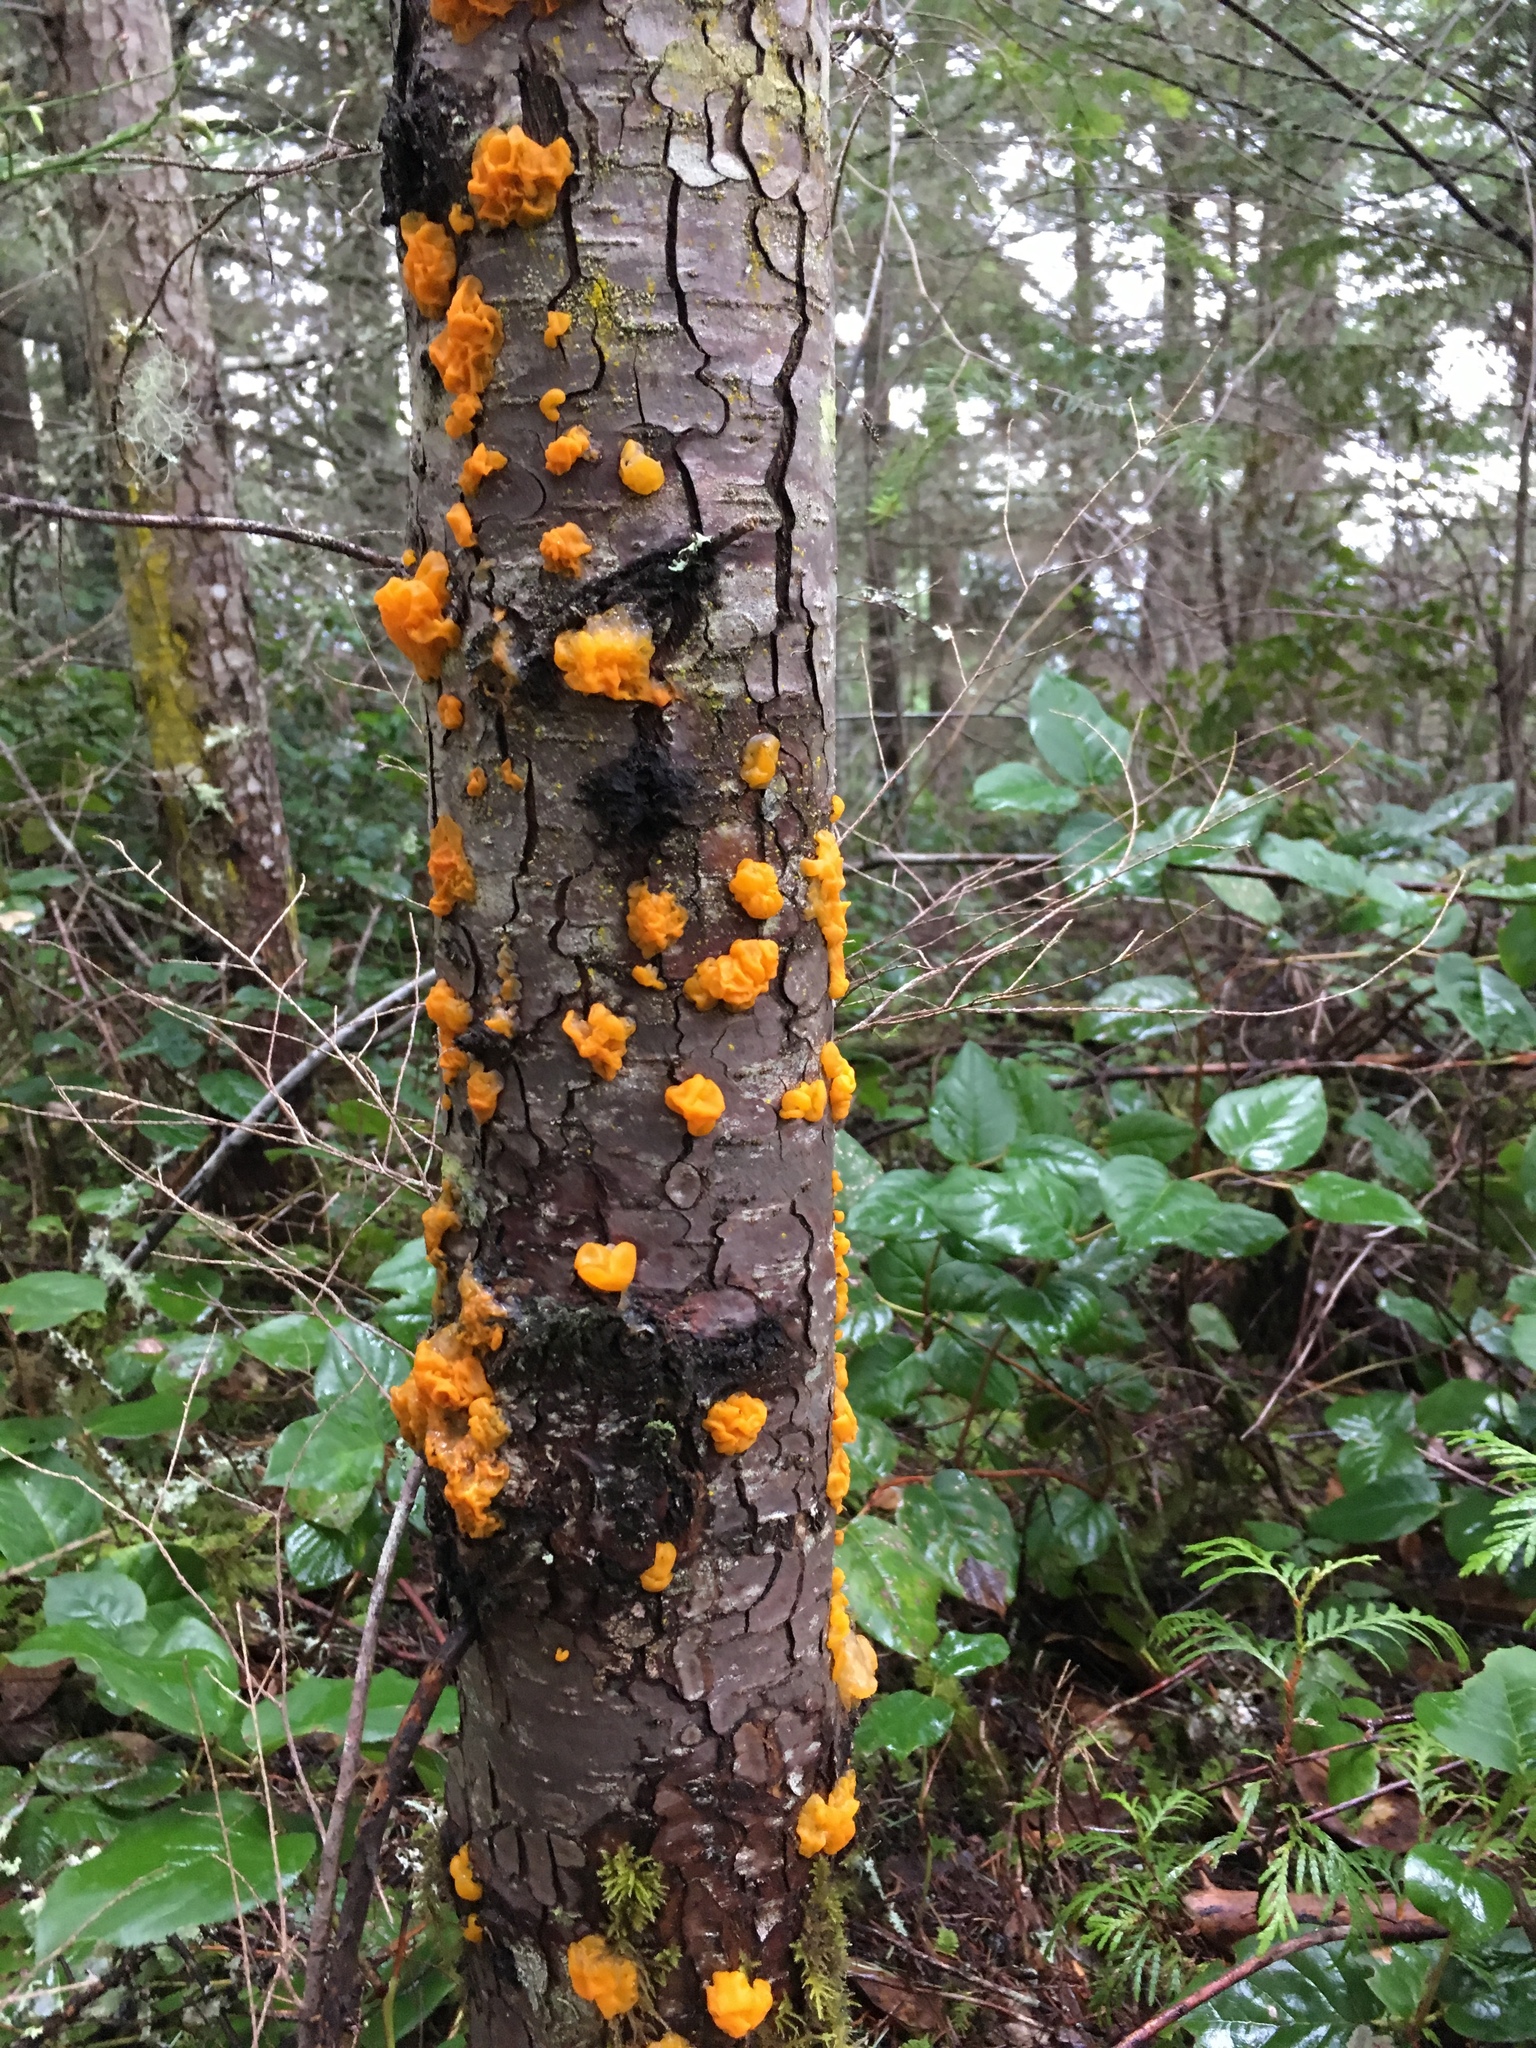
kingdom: Fungi
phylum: Basidiomycota
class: Tremellomycetes
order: Tremellales
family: Tremellaceae
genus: Tremella
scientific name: Tremella mesenterica
